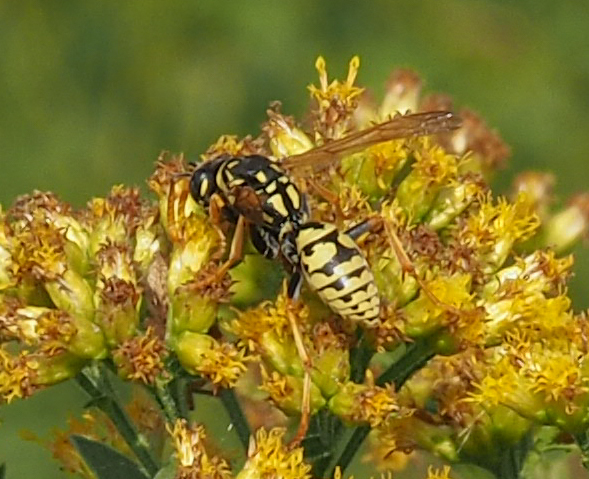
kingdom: Animalia
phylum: Arthropoda
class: Insecta
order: Hymenoptera
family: Eumenidae
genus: Polistes
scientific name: Polistes dominula
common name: Paper wasp
